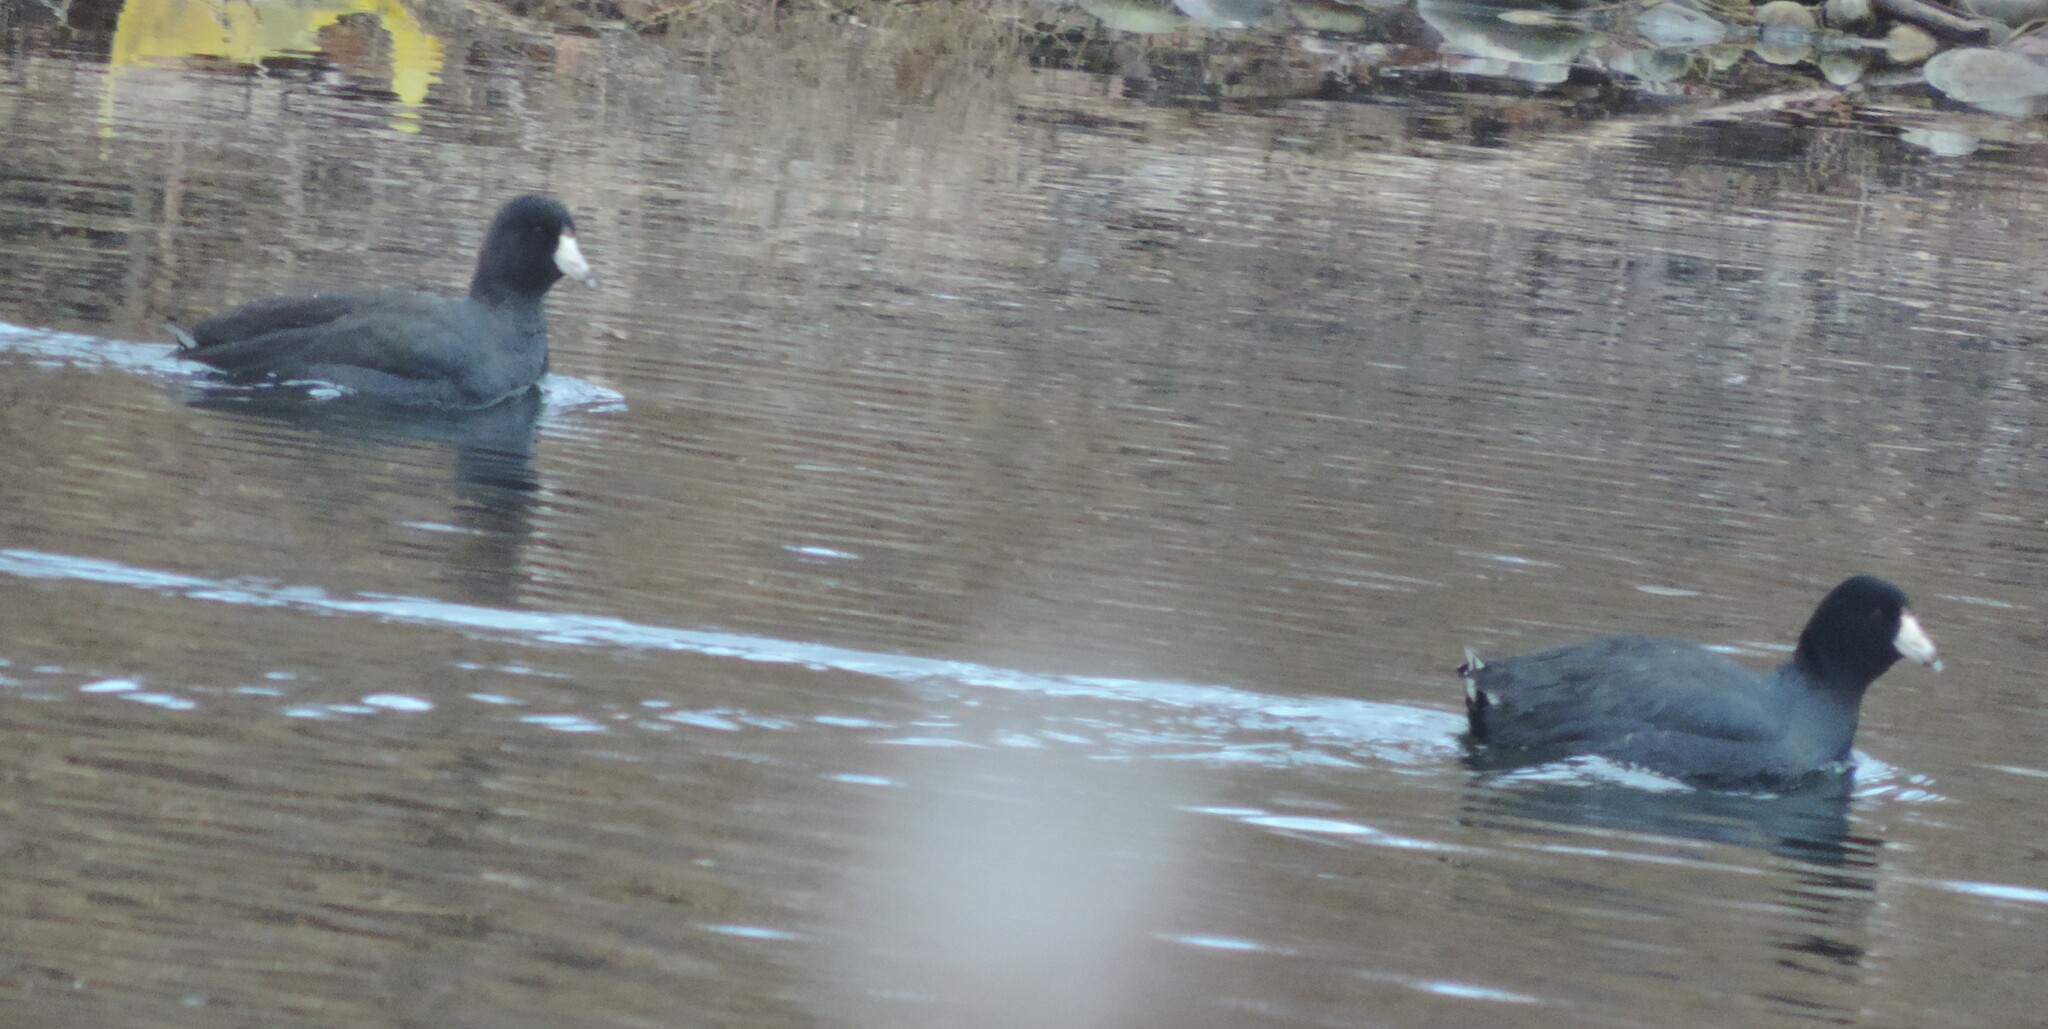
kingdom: Animalia
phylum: Chordata
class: Aves
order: Gruiformes
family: Rallidae
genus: Fulica
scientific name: Fulica americana
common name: American coot
